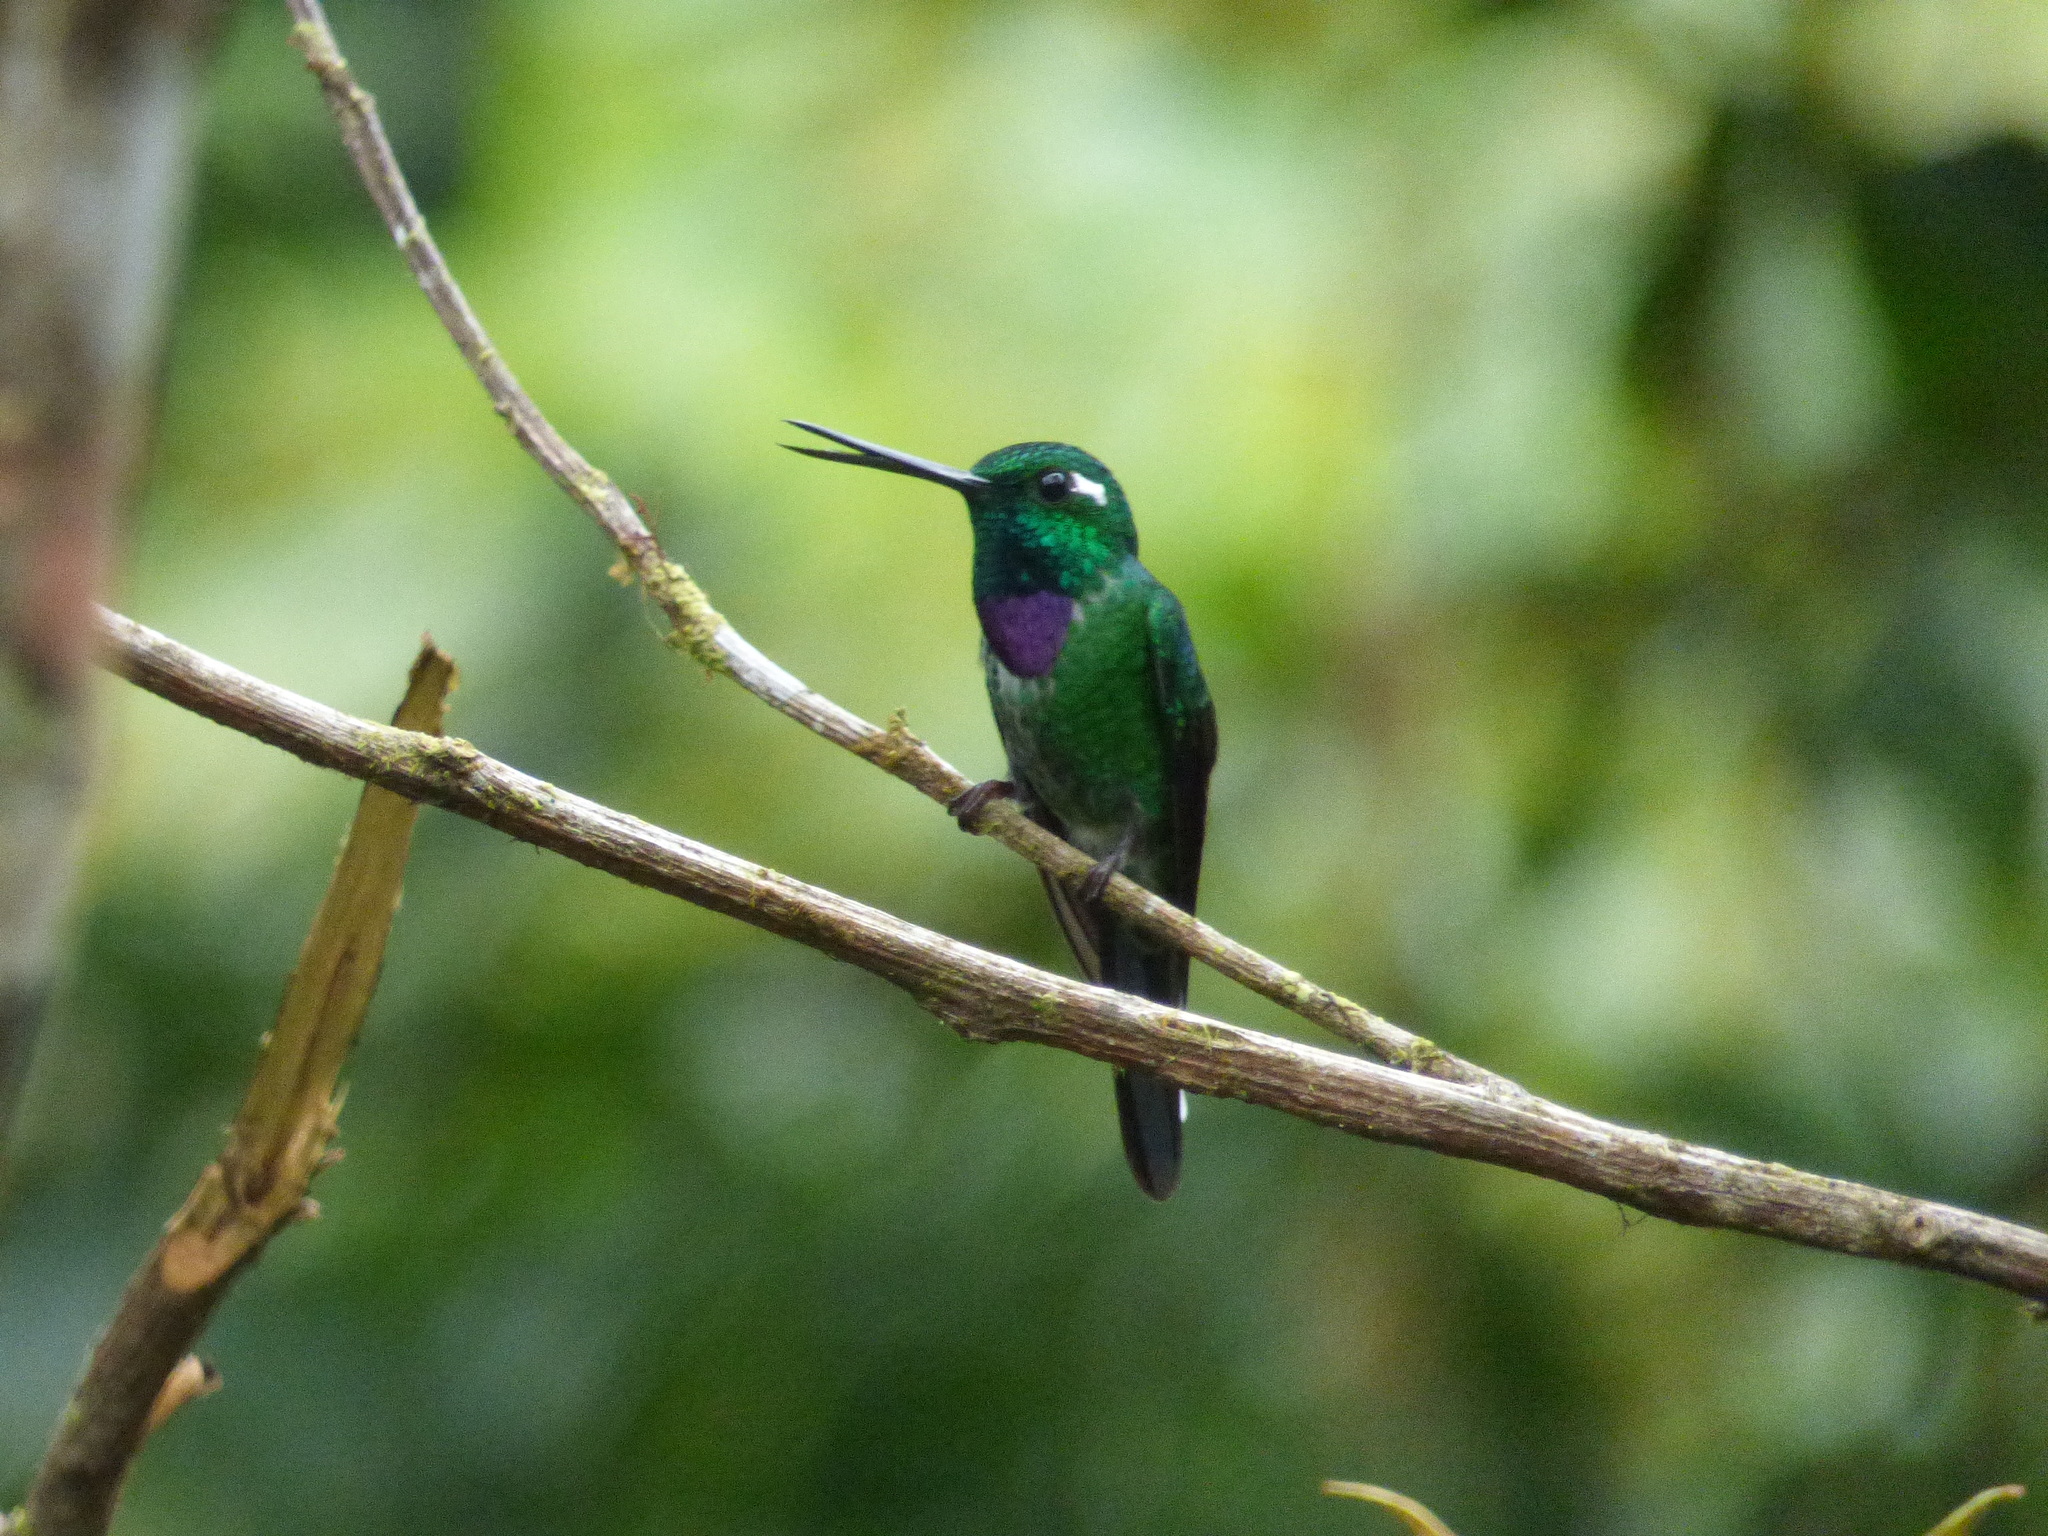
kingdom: Animalia
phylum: Chordata
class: Aves
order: Apodiformes
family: Trochilidae
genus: Urosticte
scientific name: Urosticte benjamini
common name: Purple-bibbed whitetip
